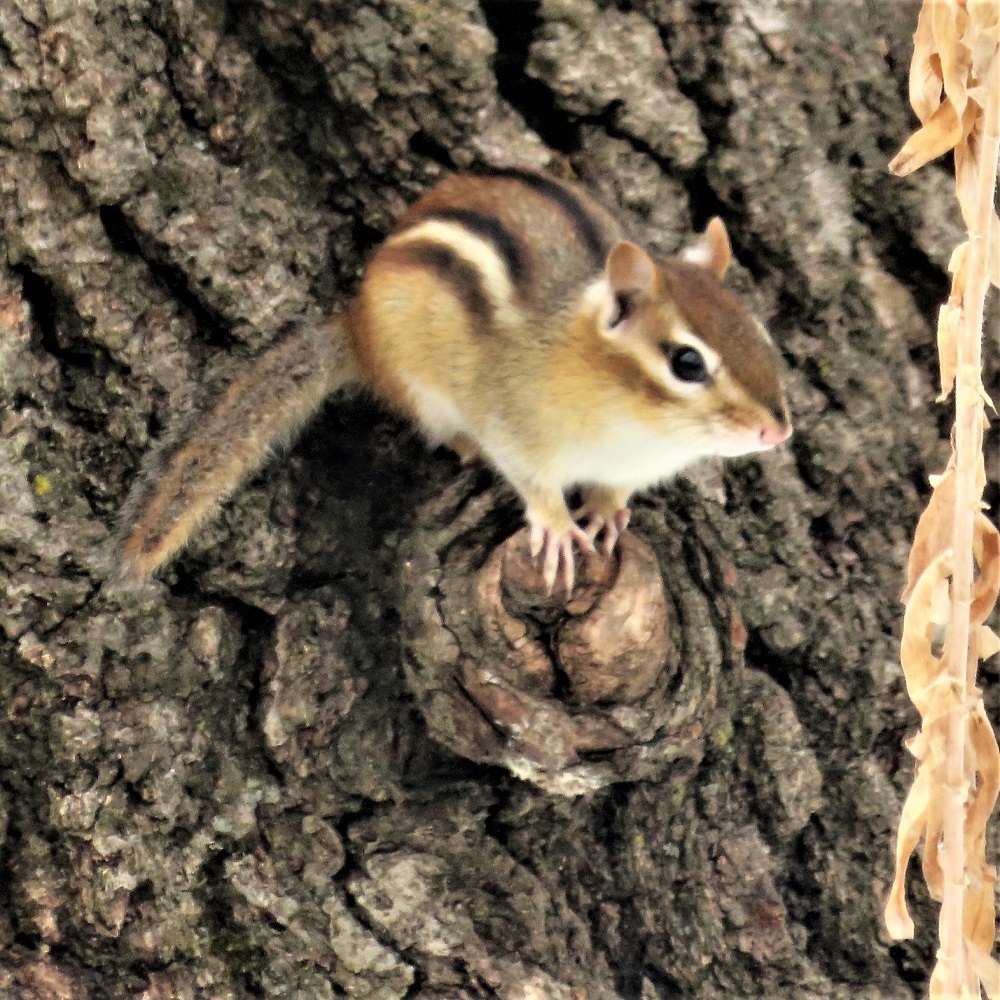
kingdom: Animalia
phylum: Chordata
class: Mammalia
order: Rodentia
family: Sciuridae
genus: Tamias
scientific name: Tamias striatus
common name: Eastern chipmunk
